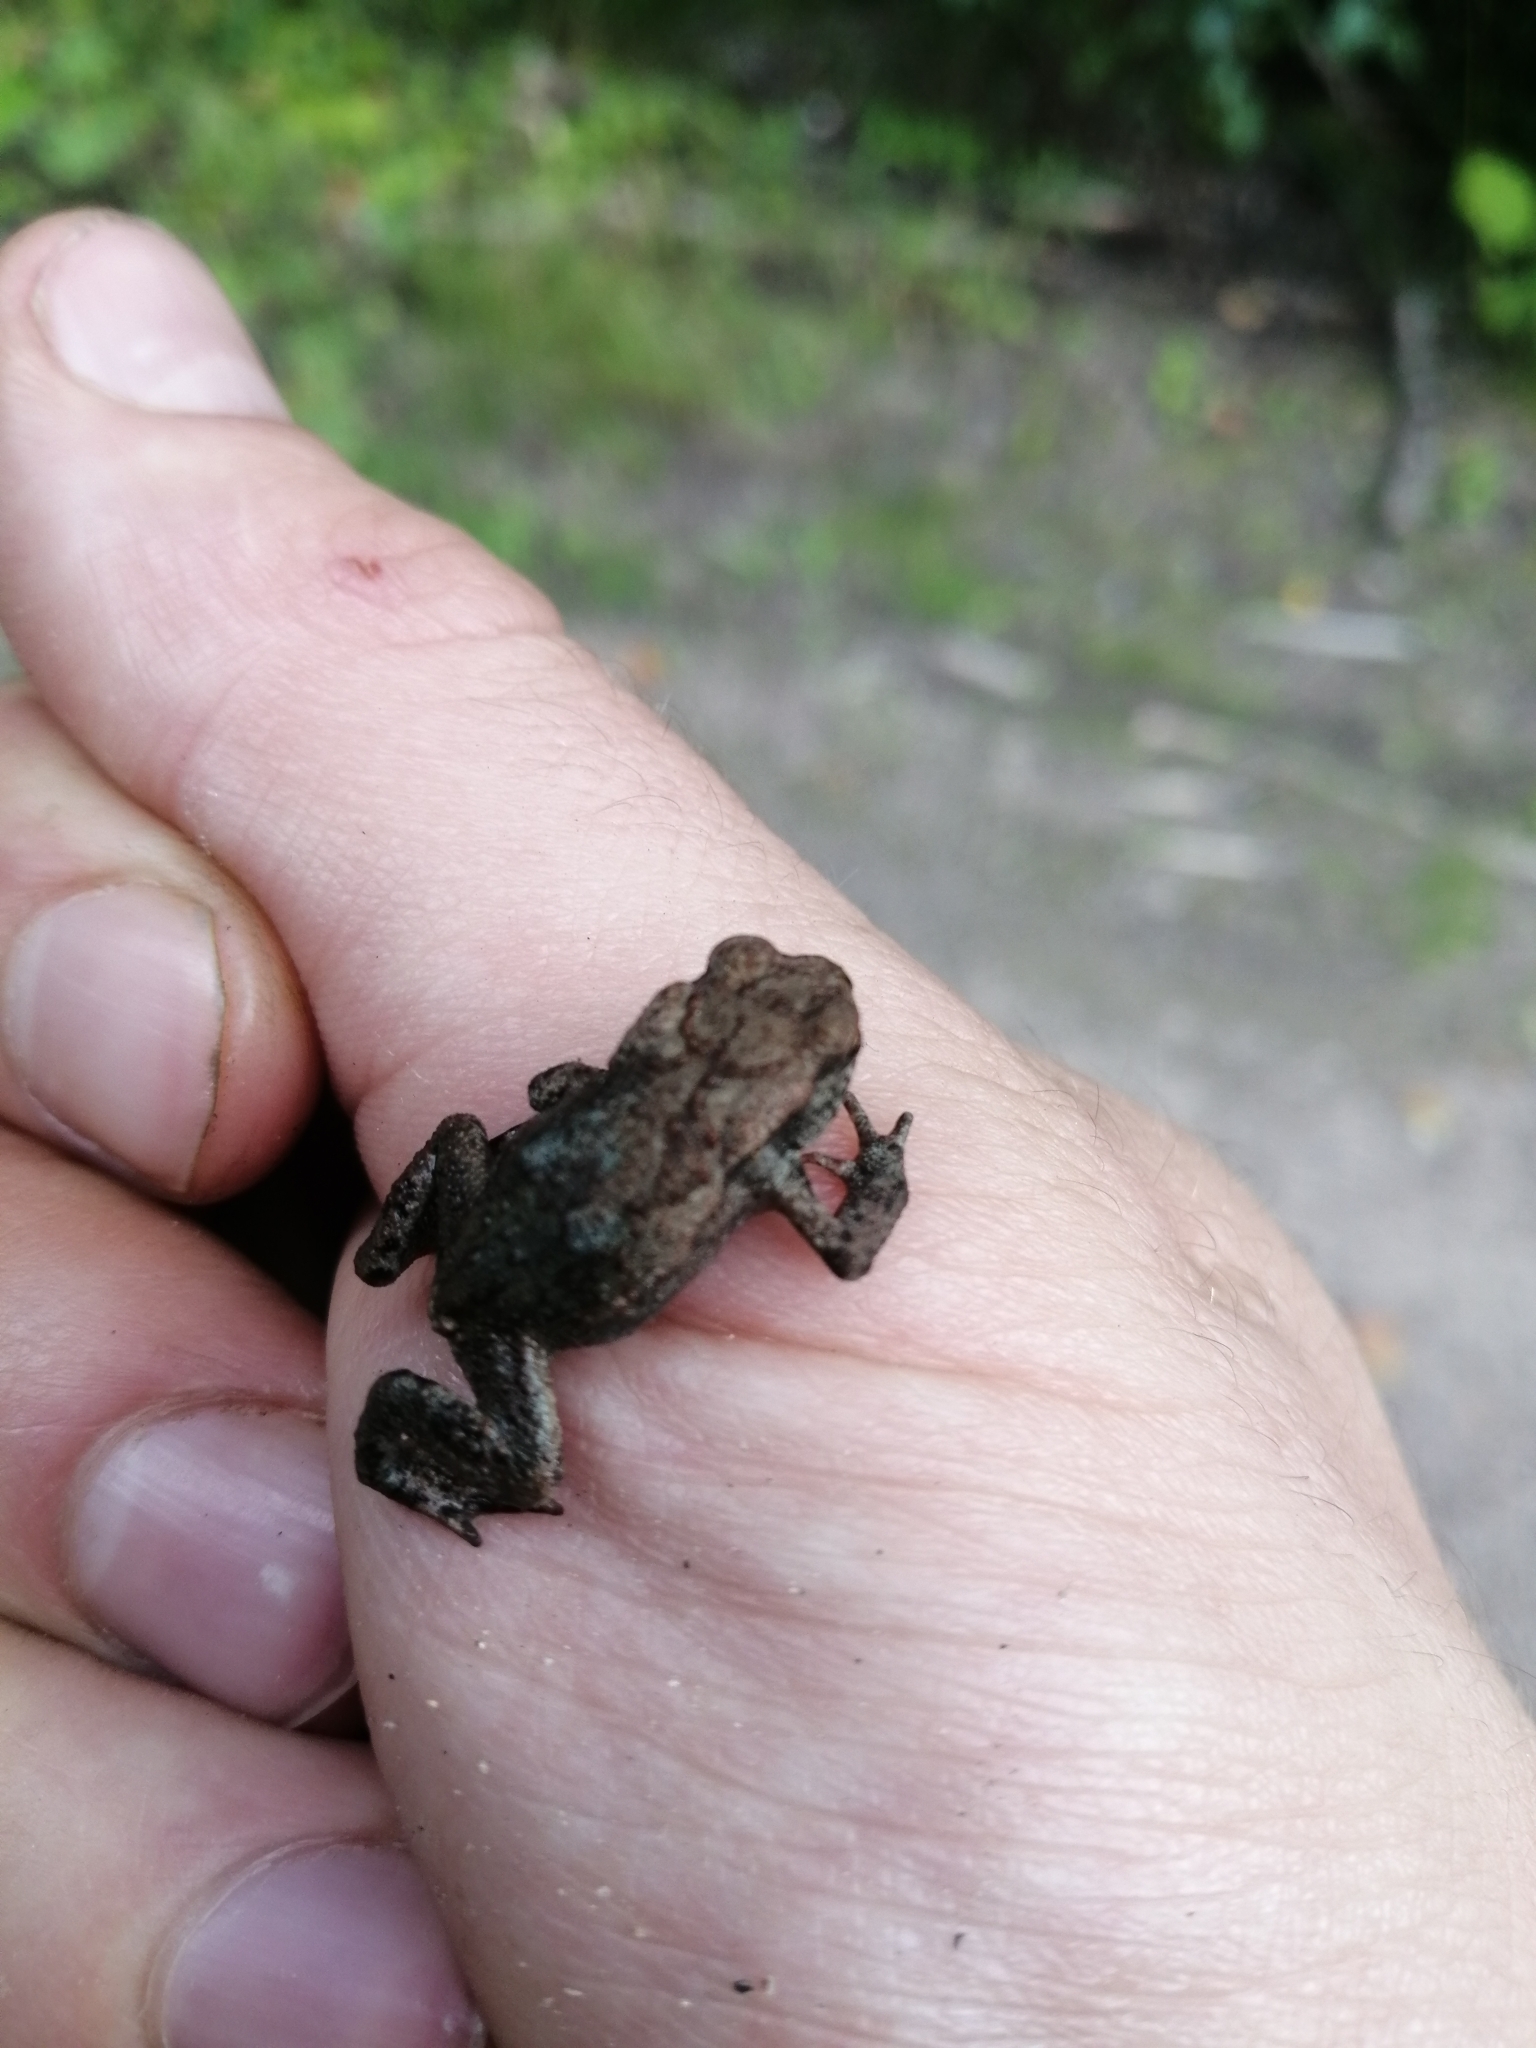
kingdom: Animalia
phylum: Chordata
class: Amphibia
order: Anura
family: Bufonidae
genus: Bufo
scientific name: Bufo bufo
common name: Common toad
